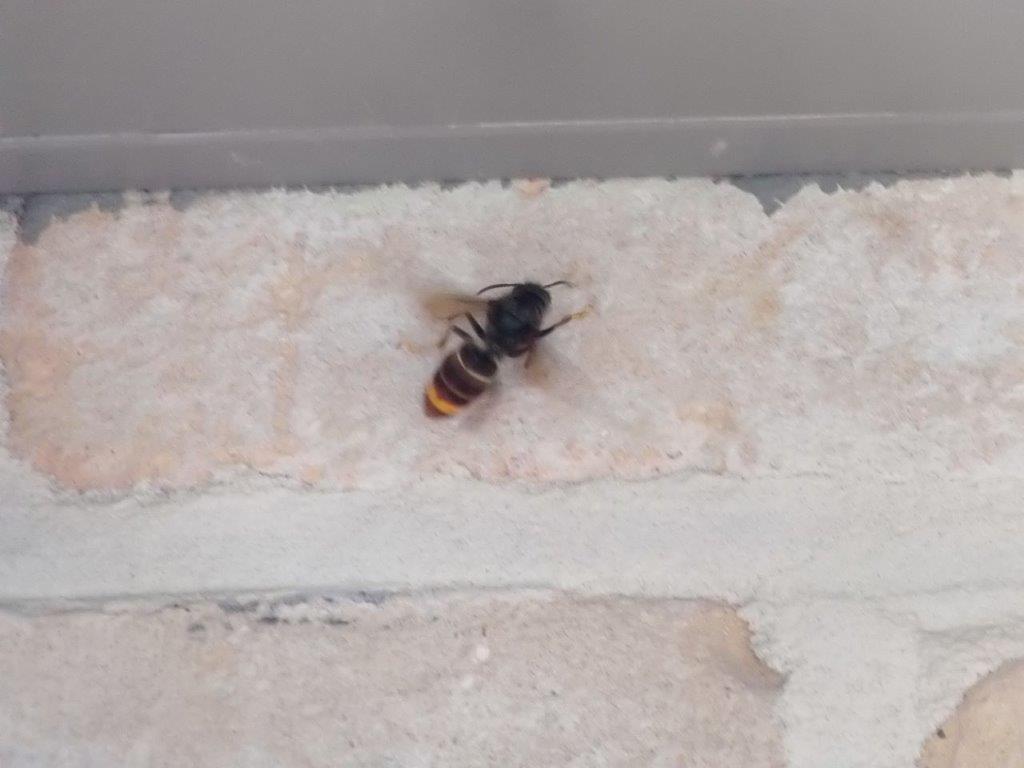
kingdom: Animalia
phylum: Arthropoda
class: Insecta
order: Hymenoptera
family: Vespidae
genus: Vespa
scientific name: Vespa velutina
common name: Asian hornet
